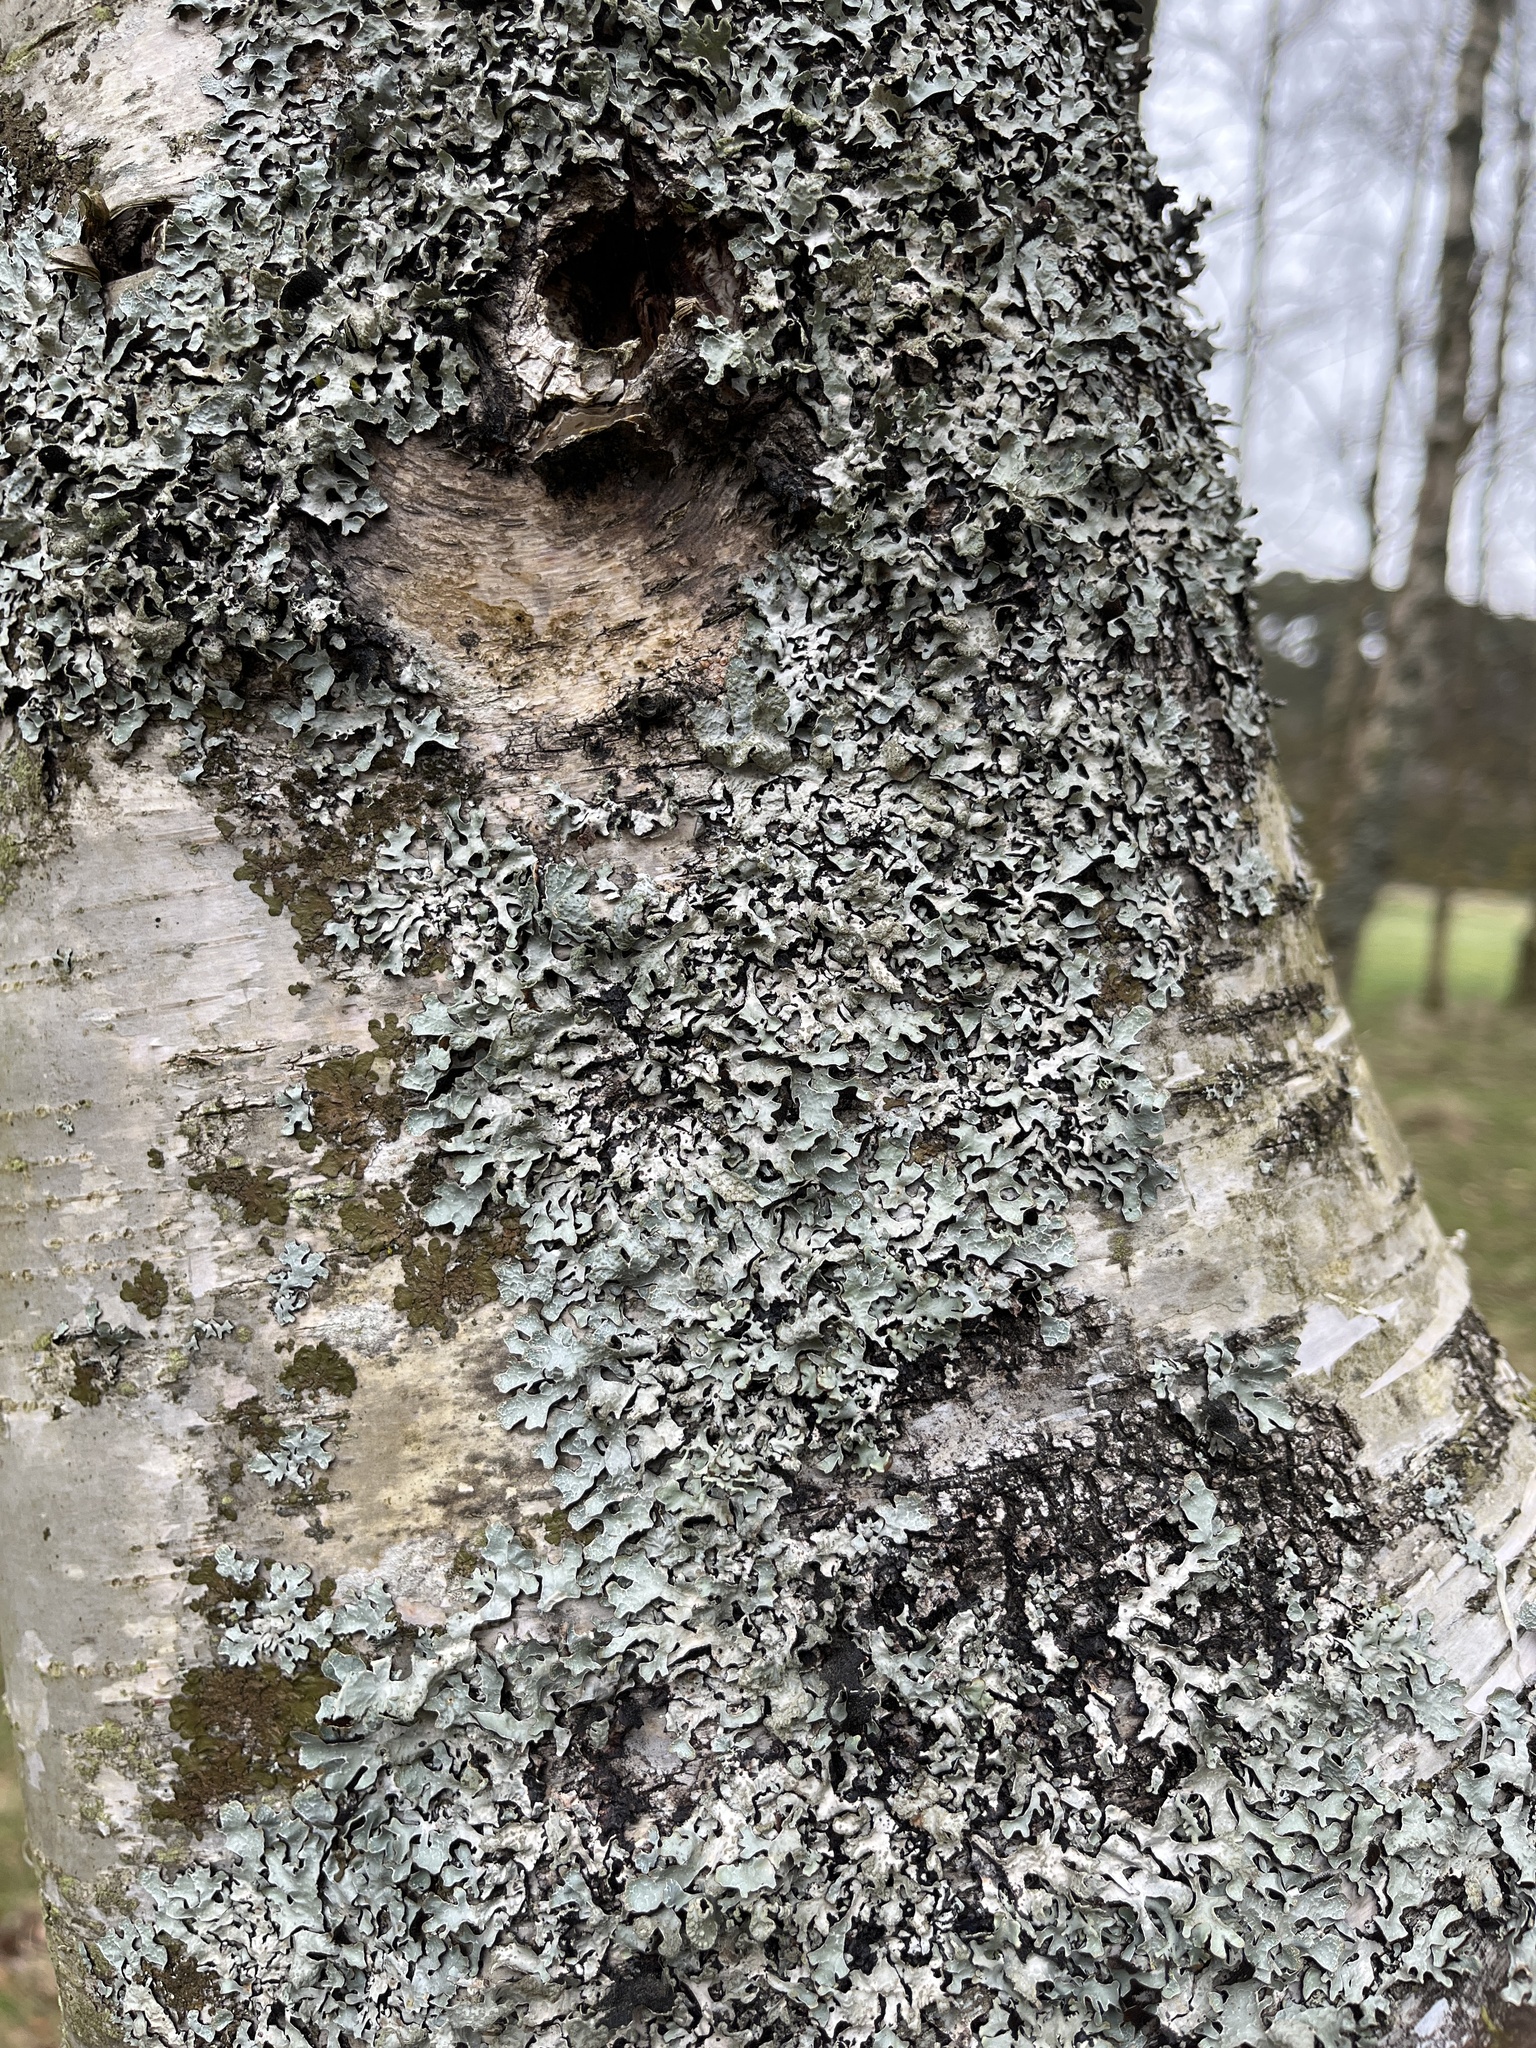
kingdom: Fungi
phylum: Ascomycota
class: Lecanoromycetes
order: Lecanorales
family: Parmeliaceae
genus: Parmelia
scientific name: Parmelia sulcata
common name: Netted shield lichen
